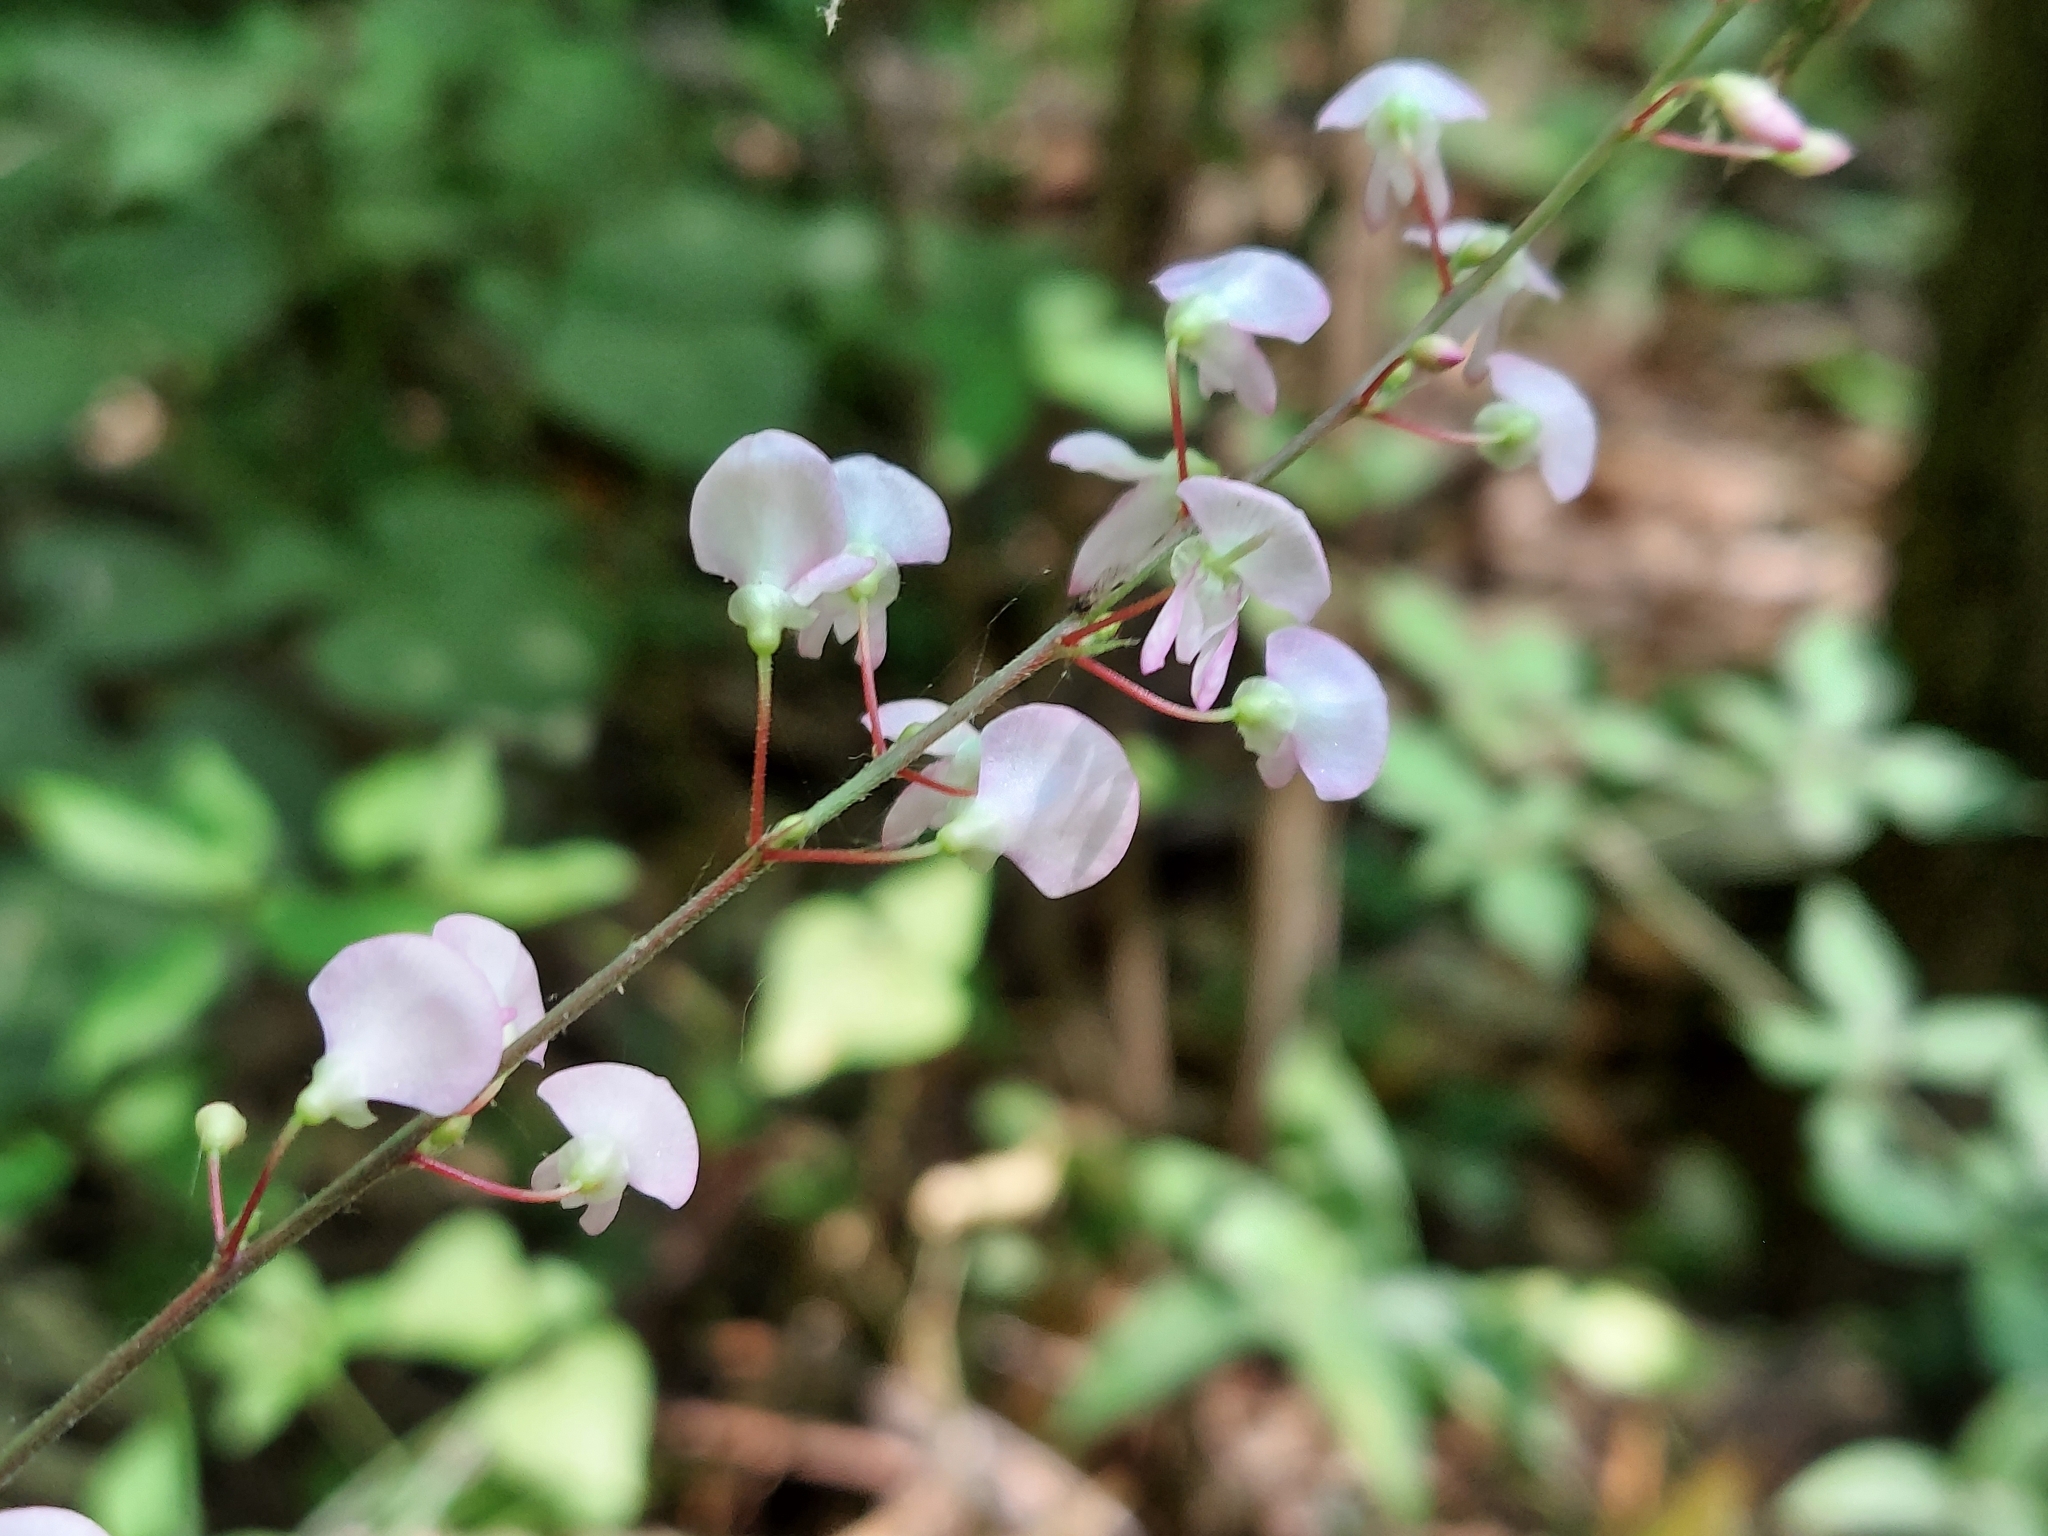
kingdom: Plantae
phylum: Tracheophyta
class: Magnoliopsida
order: Fabales
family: Fabaceae
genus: Hylodesmum
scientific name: Hylodesmum glutinosum
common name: Clustered-leaved tick-trefoil
